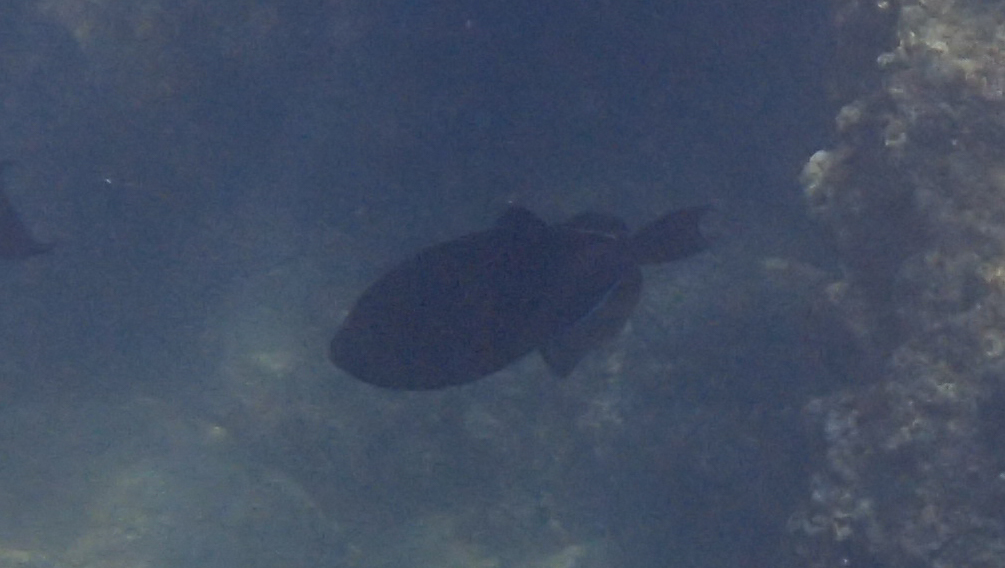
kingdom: Animalia
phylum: Chordata
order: Tetraodontiformes
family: Balistidae
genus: Melichthys
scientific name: Melichthys niger
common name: Black durgon
